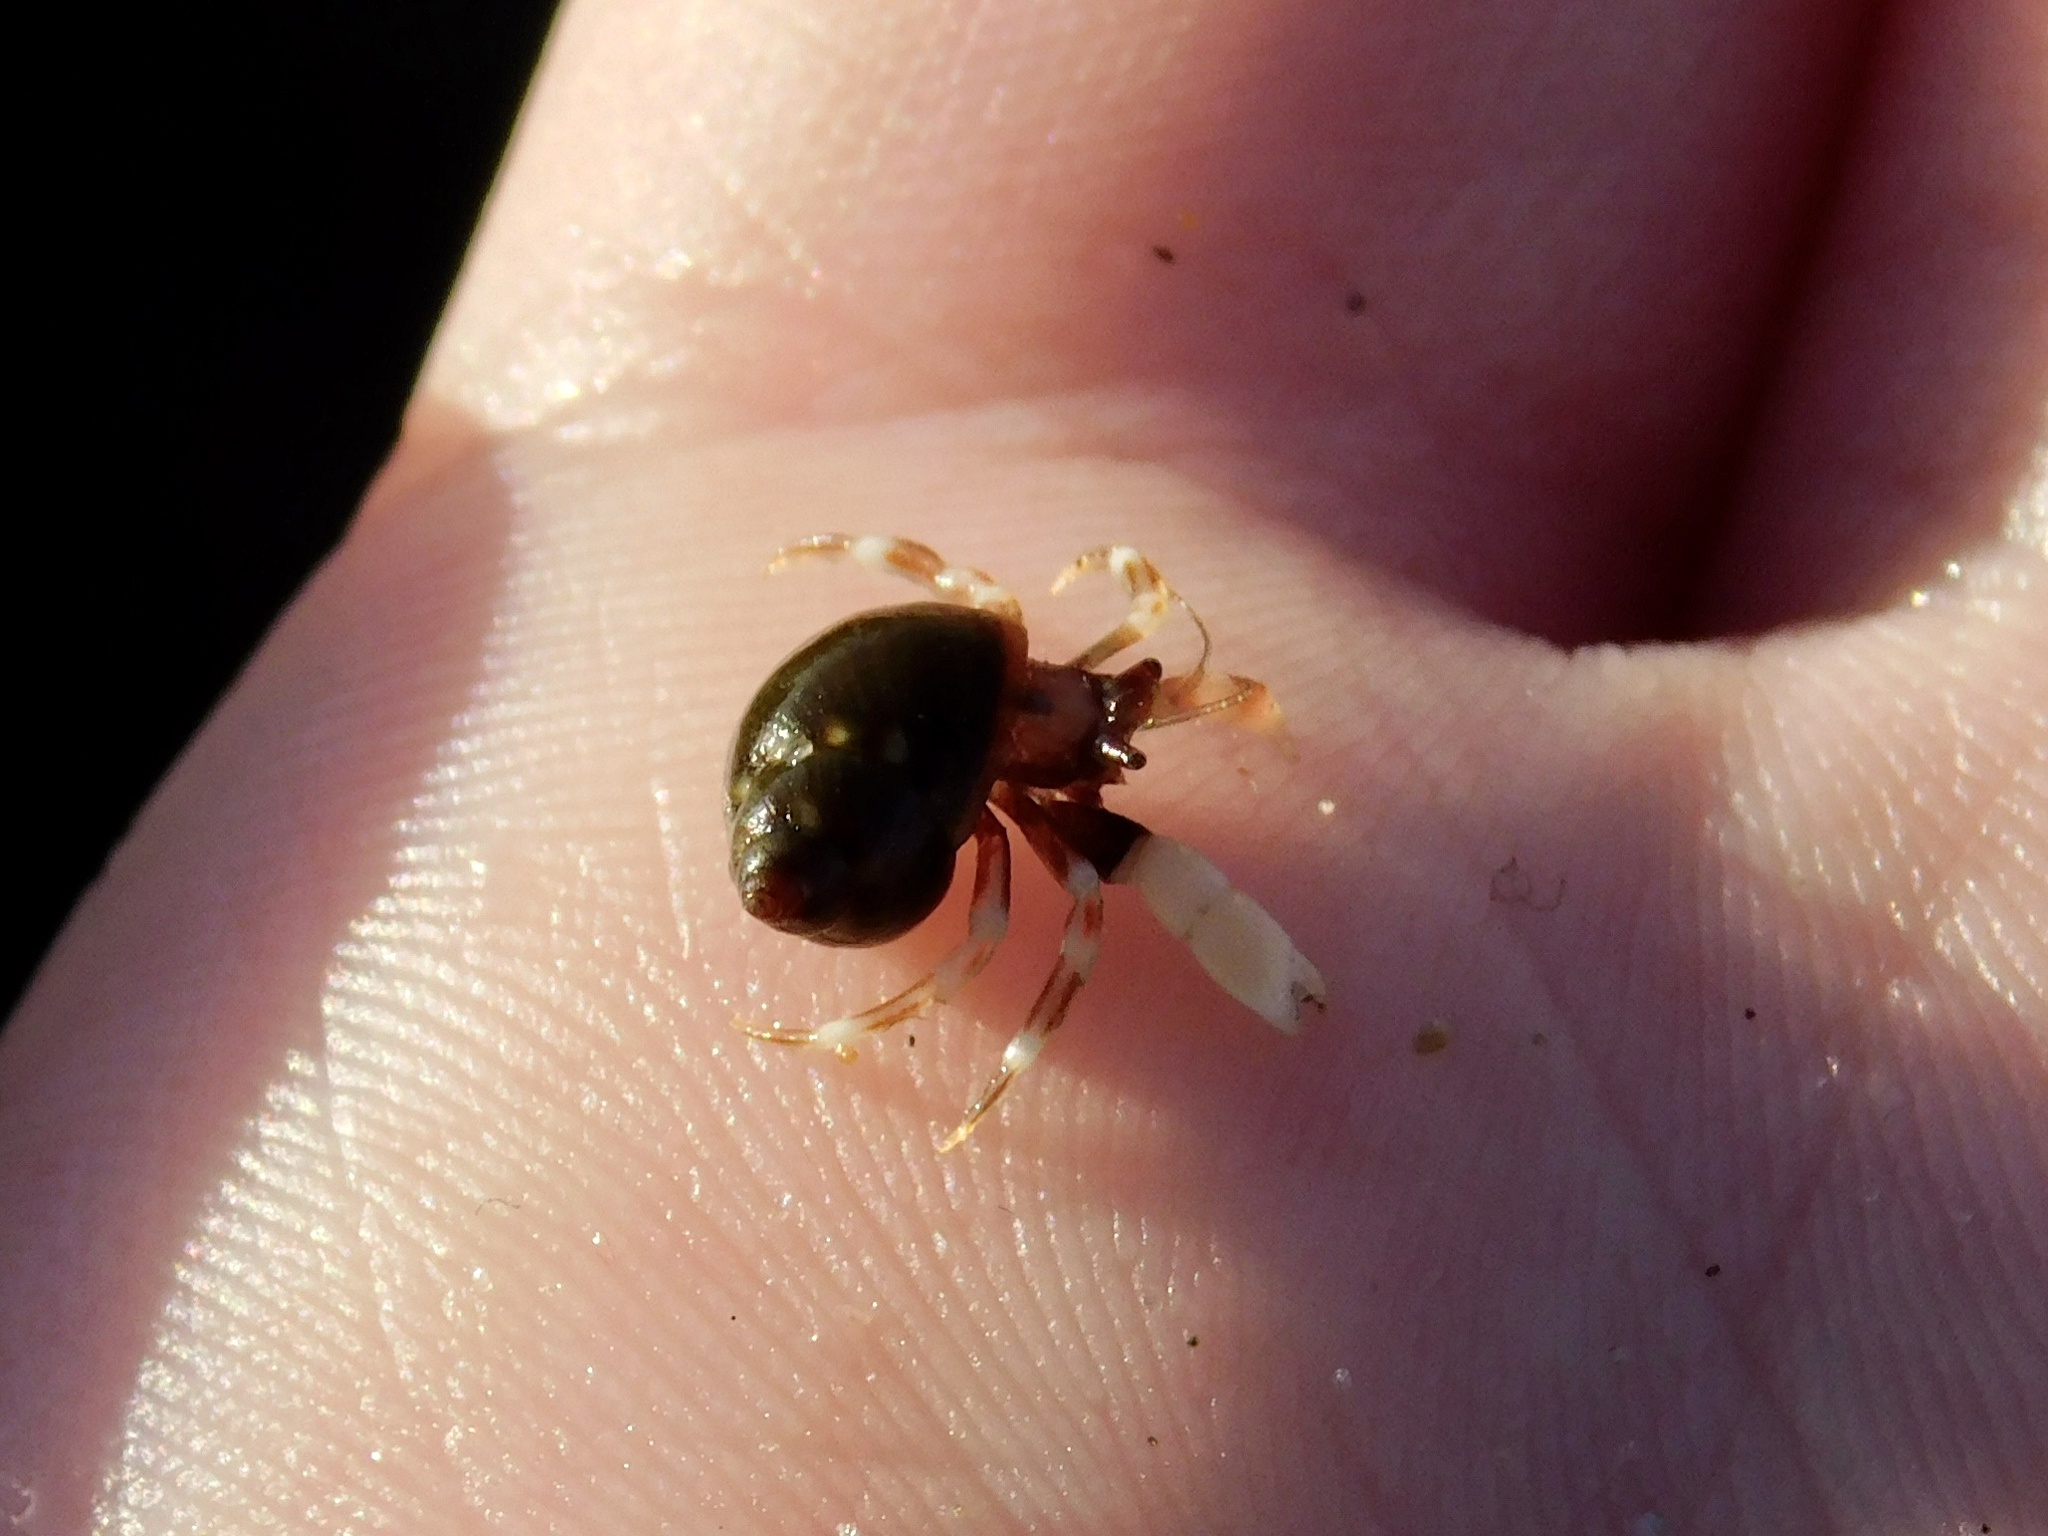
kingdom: Animalia
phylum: Arthropoda
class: Malacostraca
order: Decapoda
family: Paguridae
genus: Pagurus
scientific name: Pagurus venturensis
